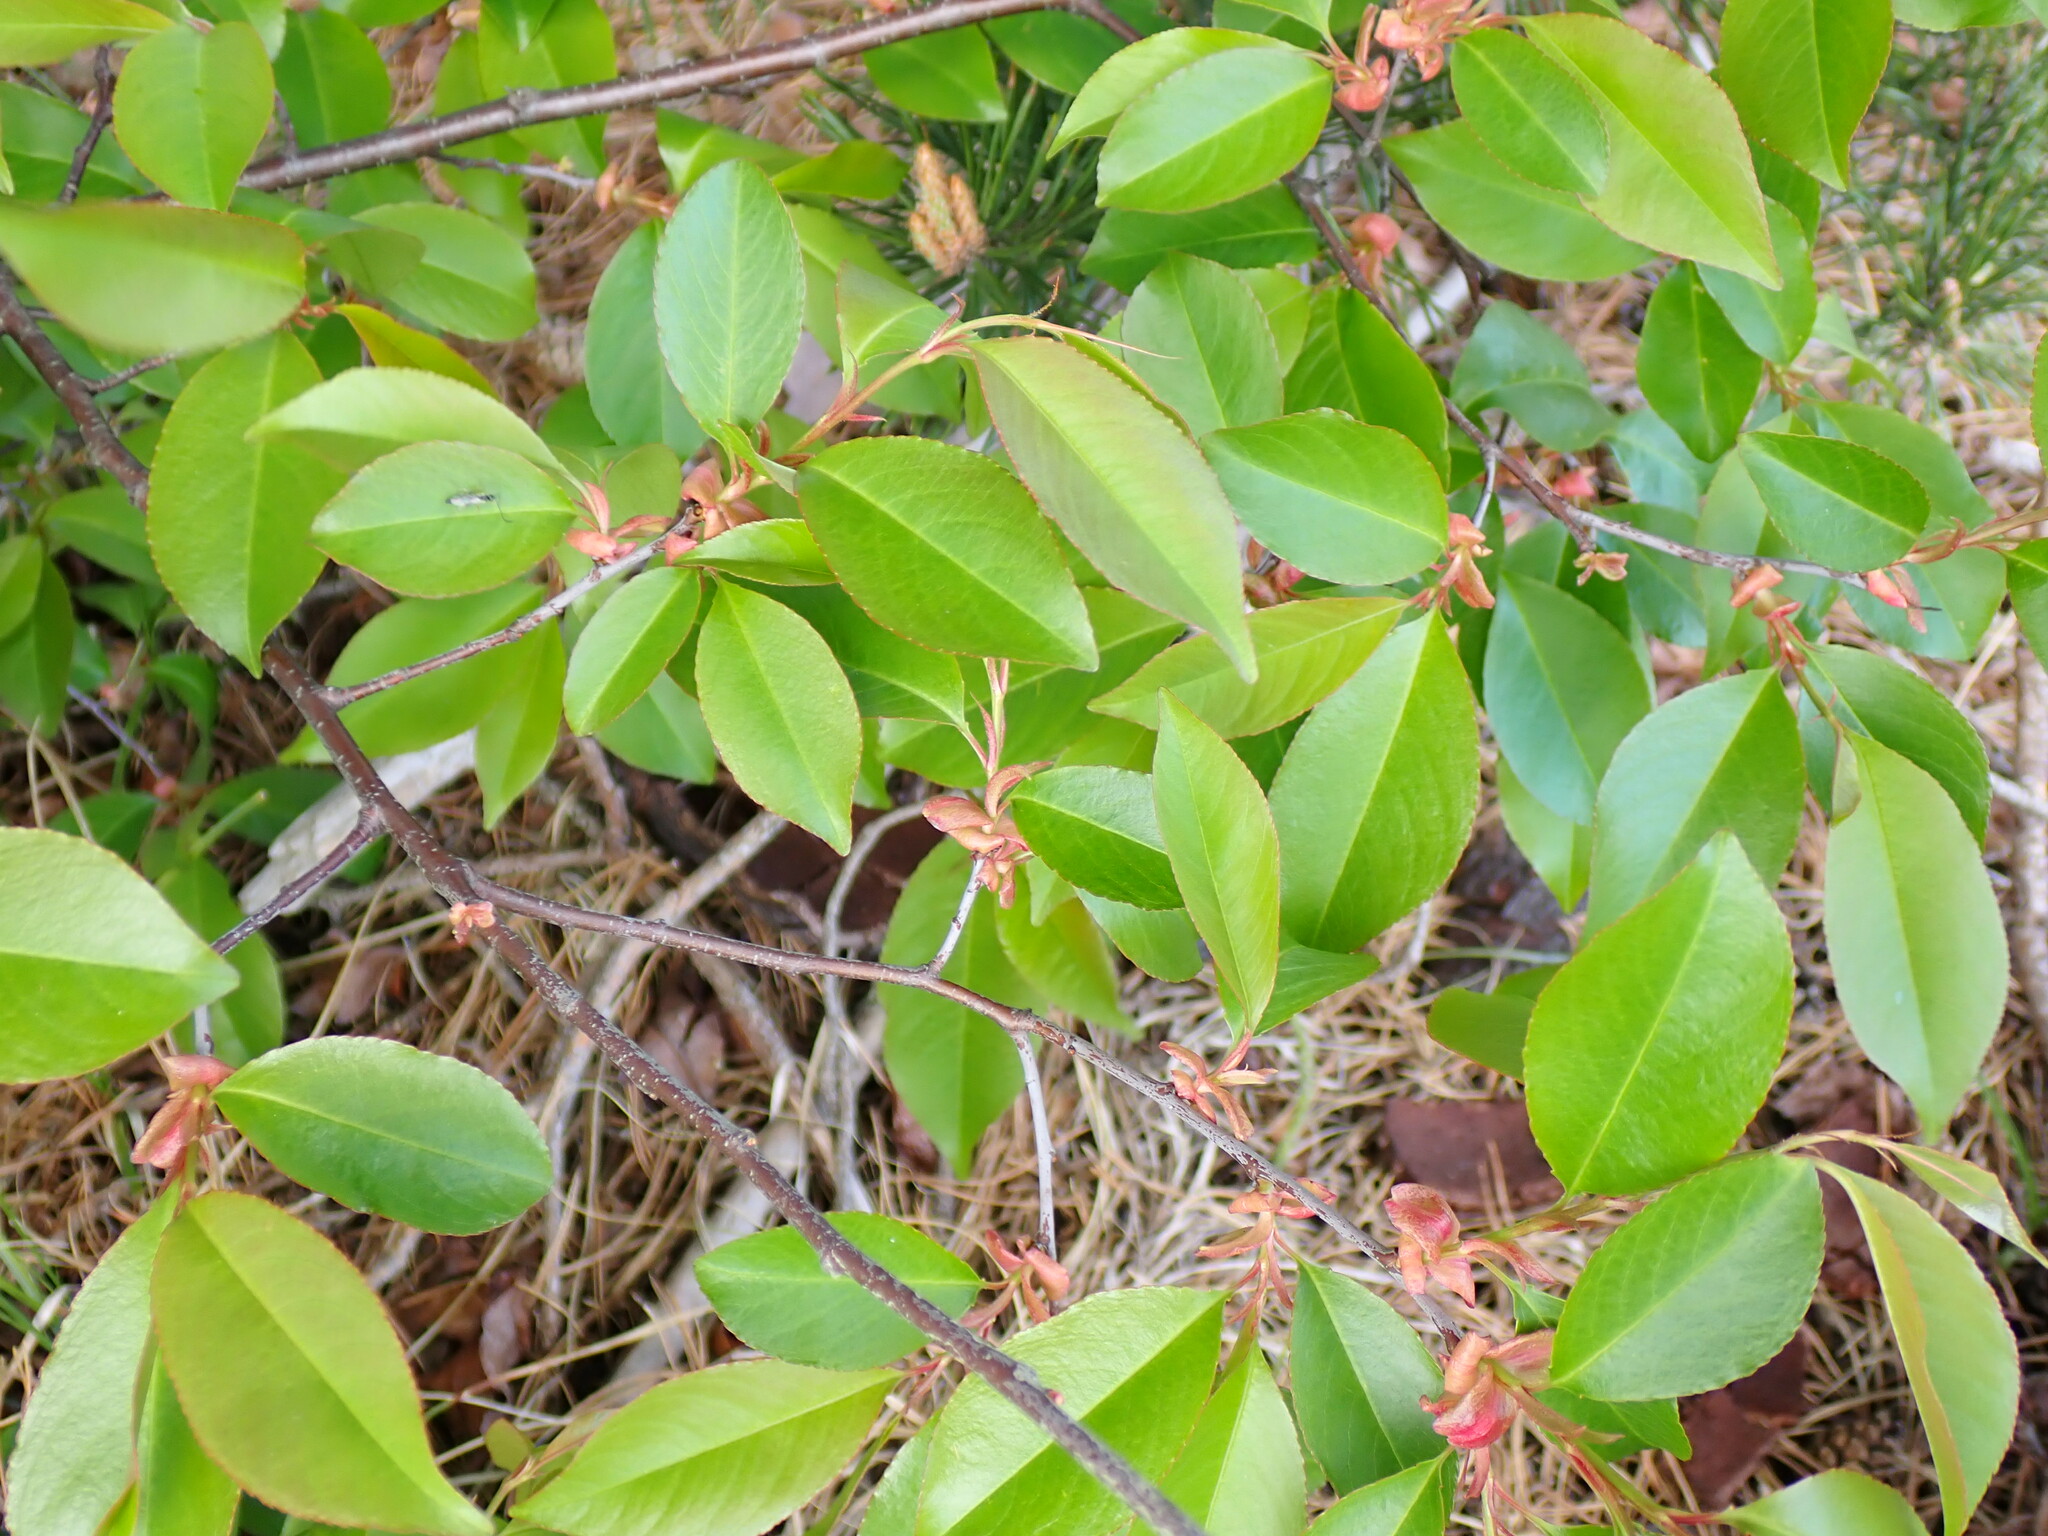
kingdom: Plantae
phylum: Tracheophyta
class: Magnoliopsida
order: Rosales
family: Rosaceae
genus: Prunus
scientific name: Prunus serotina
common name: Black cherry
